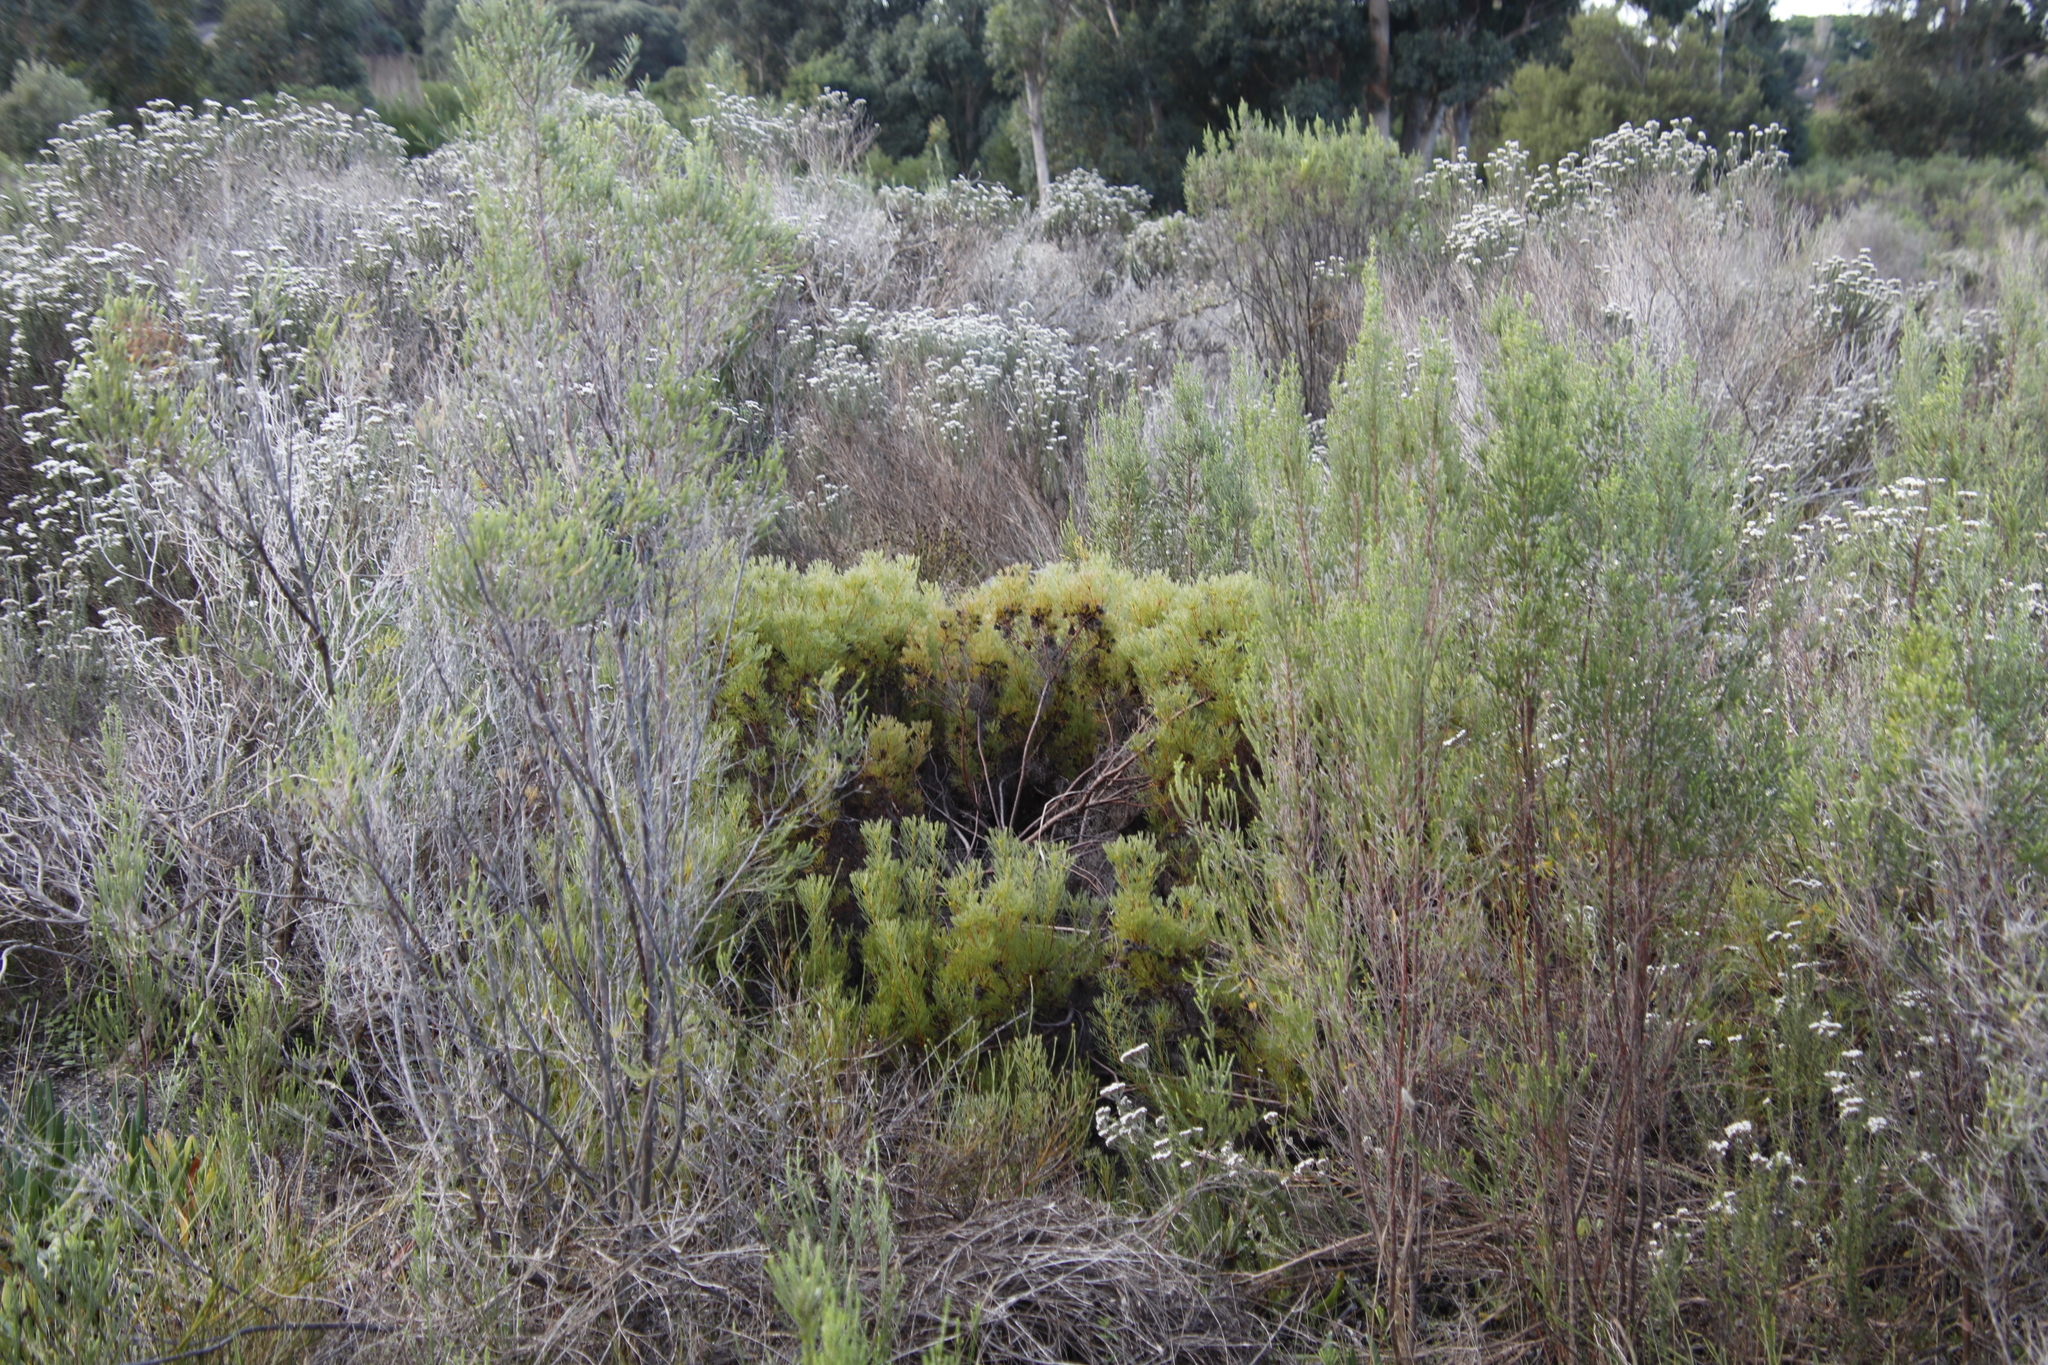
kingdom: Plantae
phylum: Tracheophyta
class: Magnoliopsida
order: Proteales
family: Proteaceae
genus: Serruria
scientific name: Serruria
